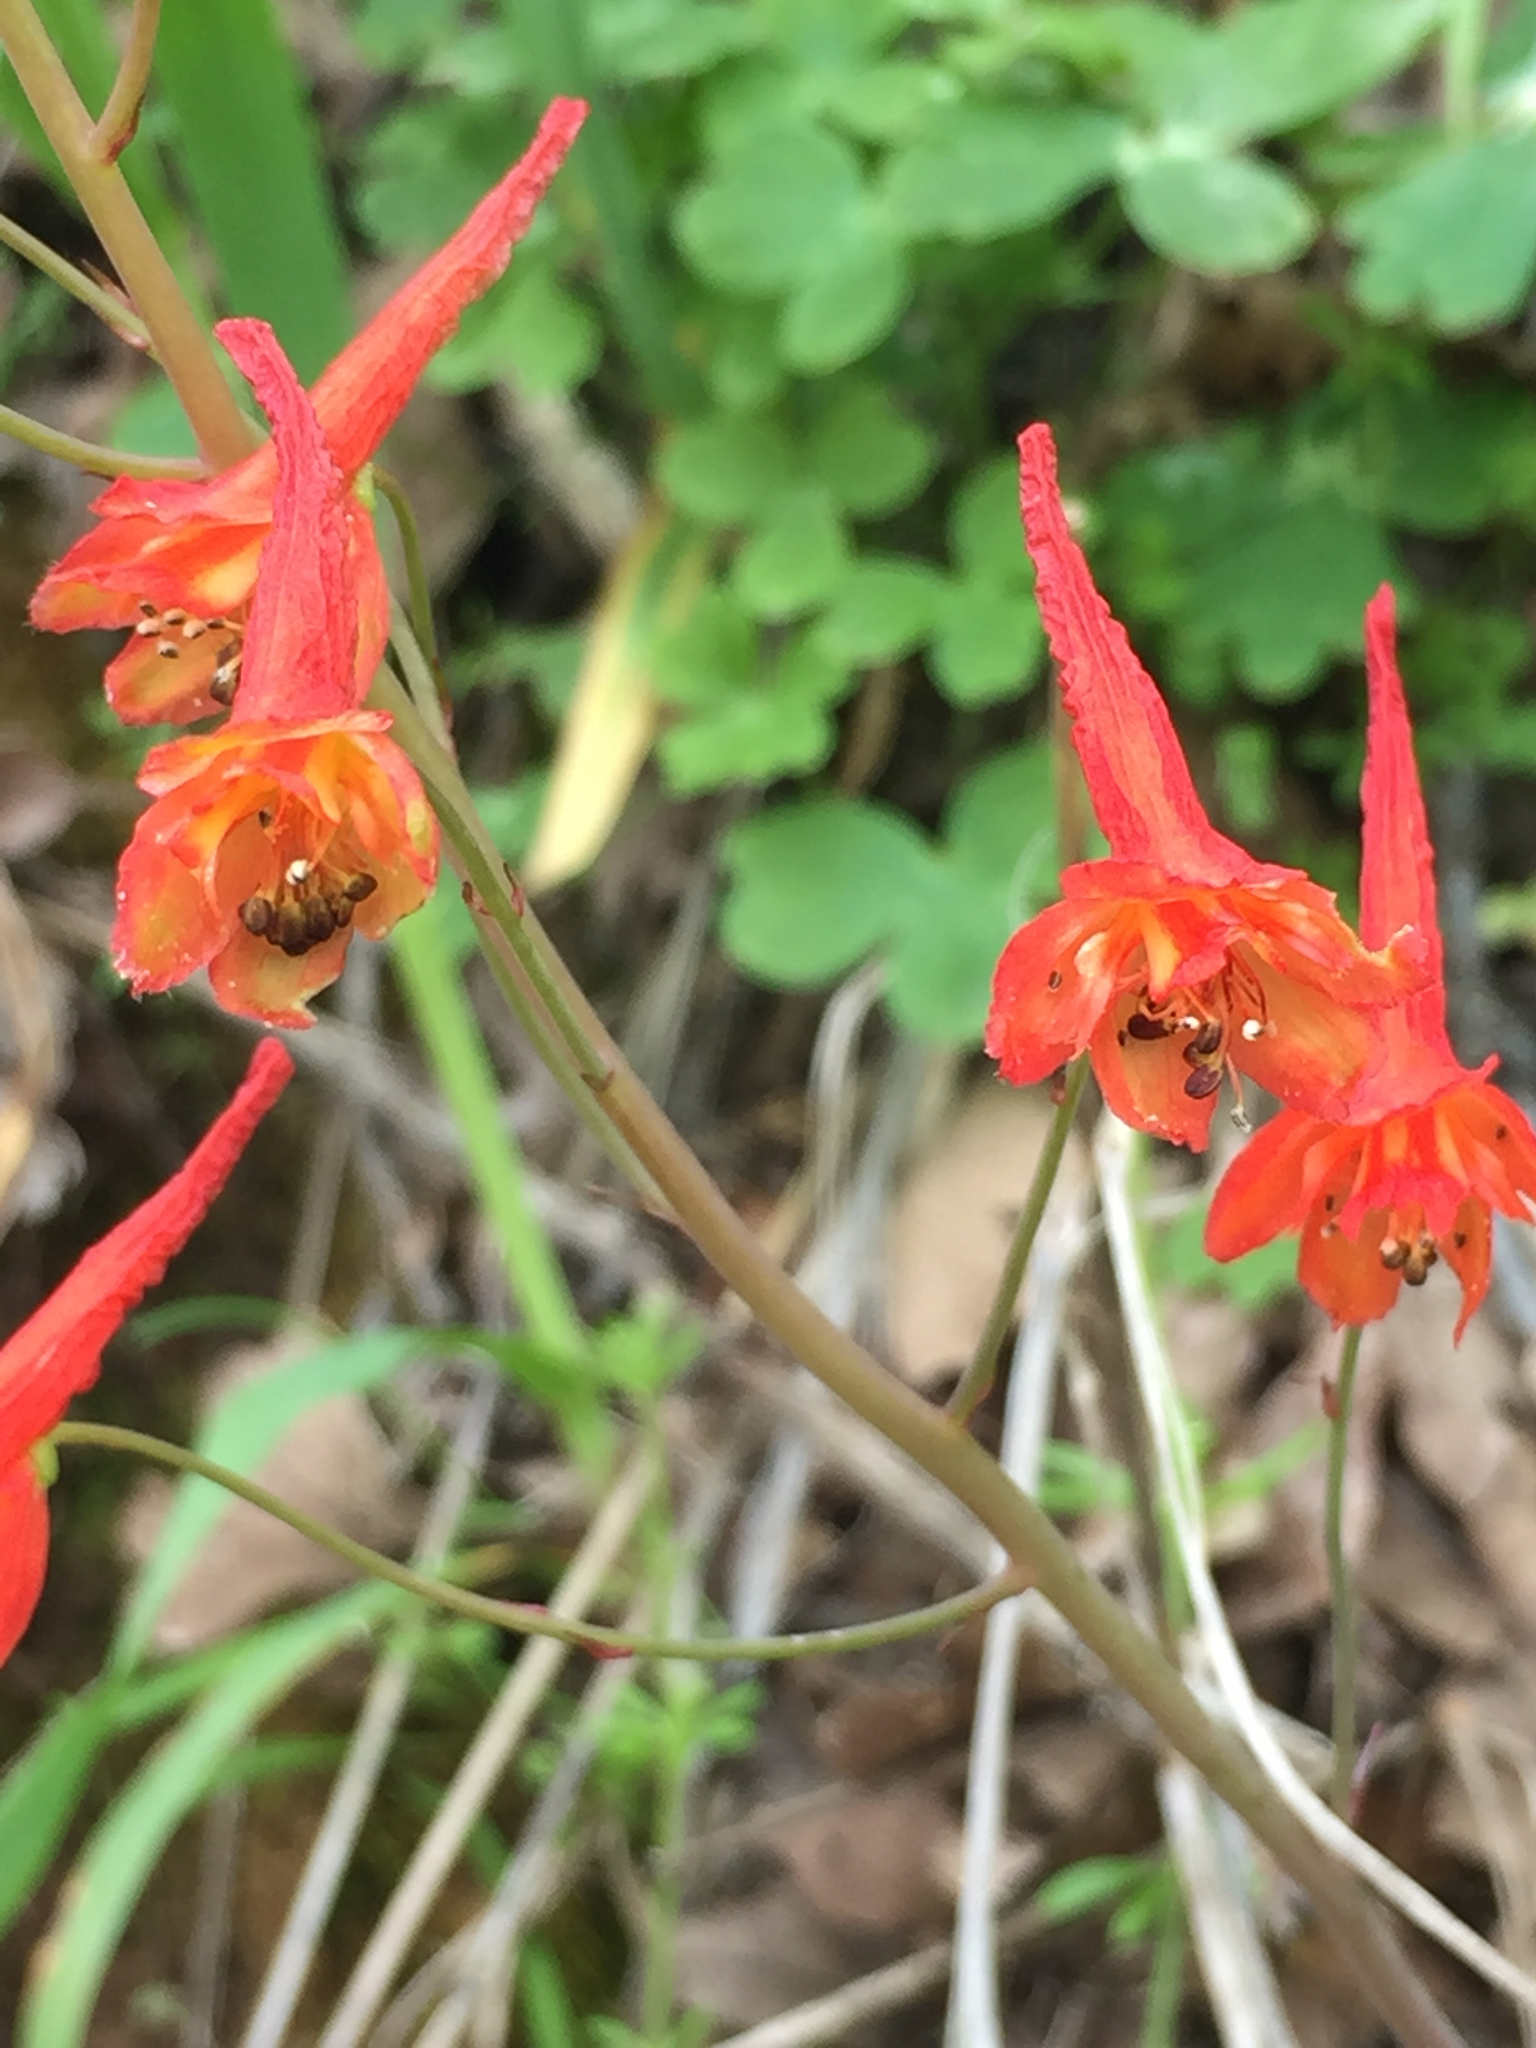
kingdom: Plantae
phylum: Tracheophyta
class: Magnoliopsida
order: Ranunculales
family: Ranunculaceae
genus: Delphinium
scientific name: Delphinium nudicaule
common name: Red larkspur
